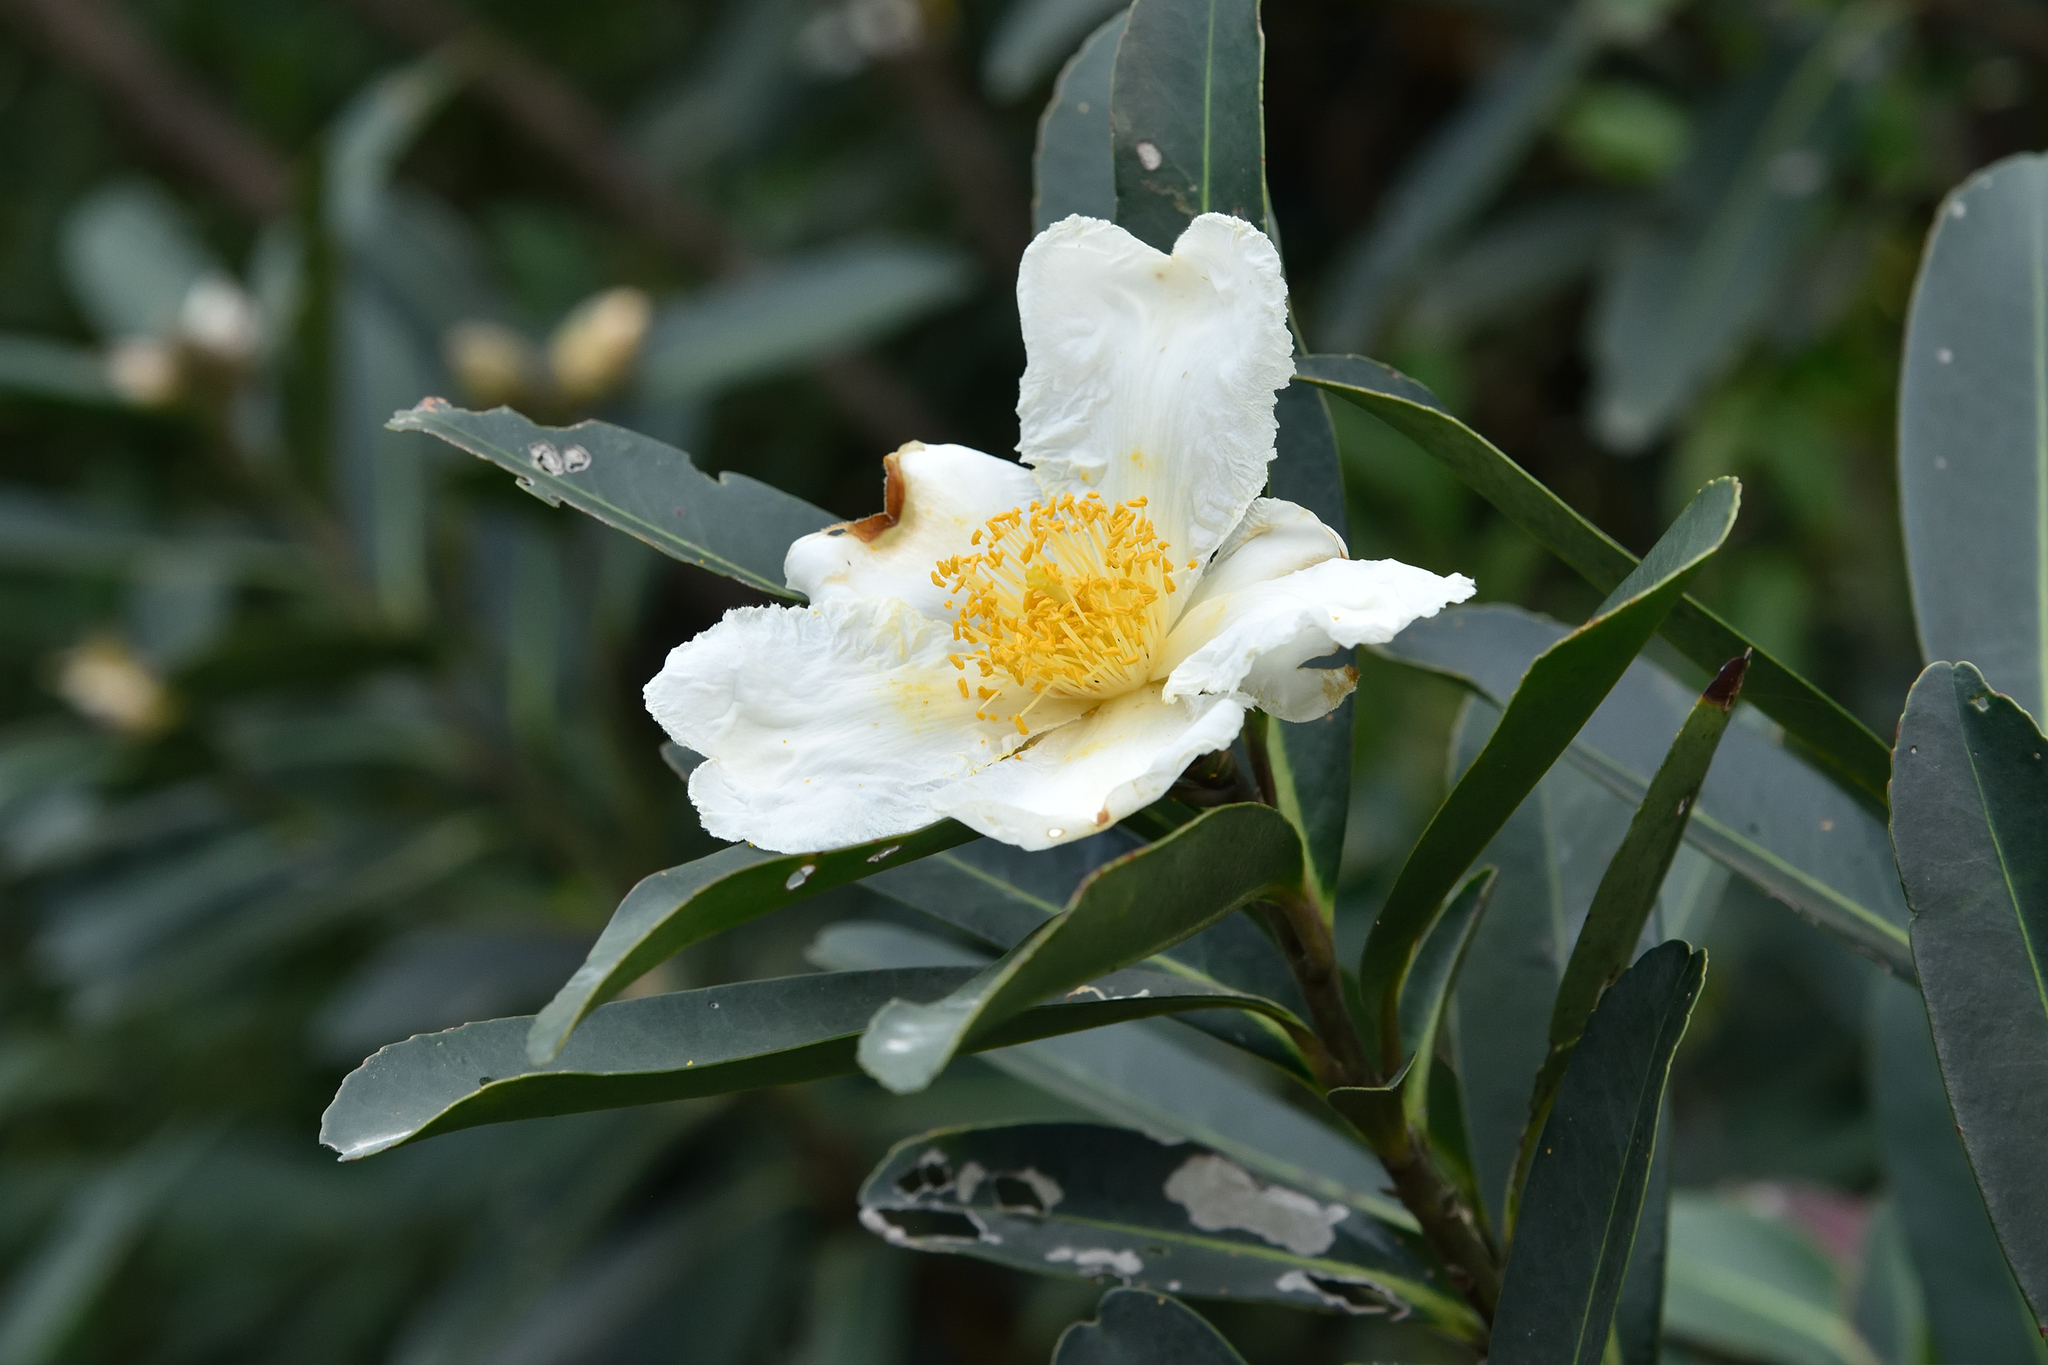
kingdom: Plantae
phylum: Tracheophyta
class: Magnoliopsida
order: Ericales
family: Theaceae
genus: Polyspora
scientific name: Polyspora axillaris
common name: Fried egg tree
